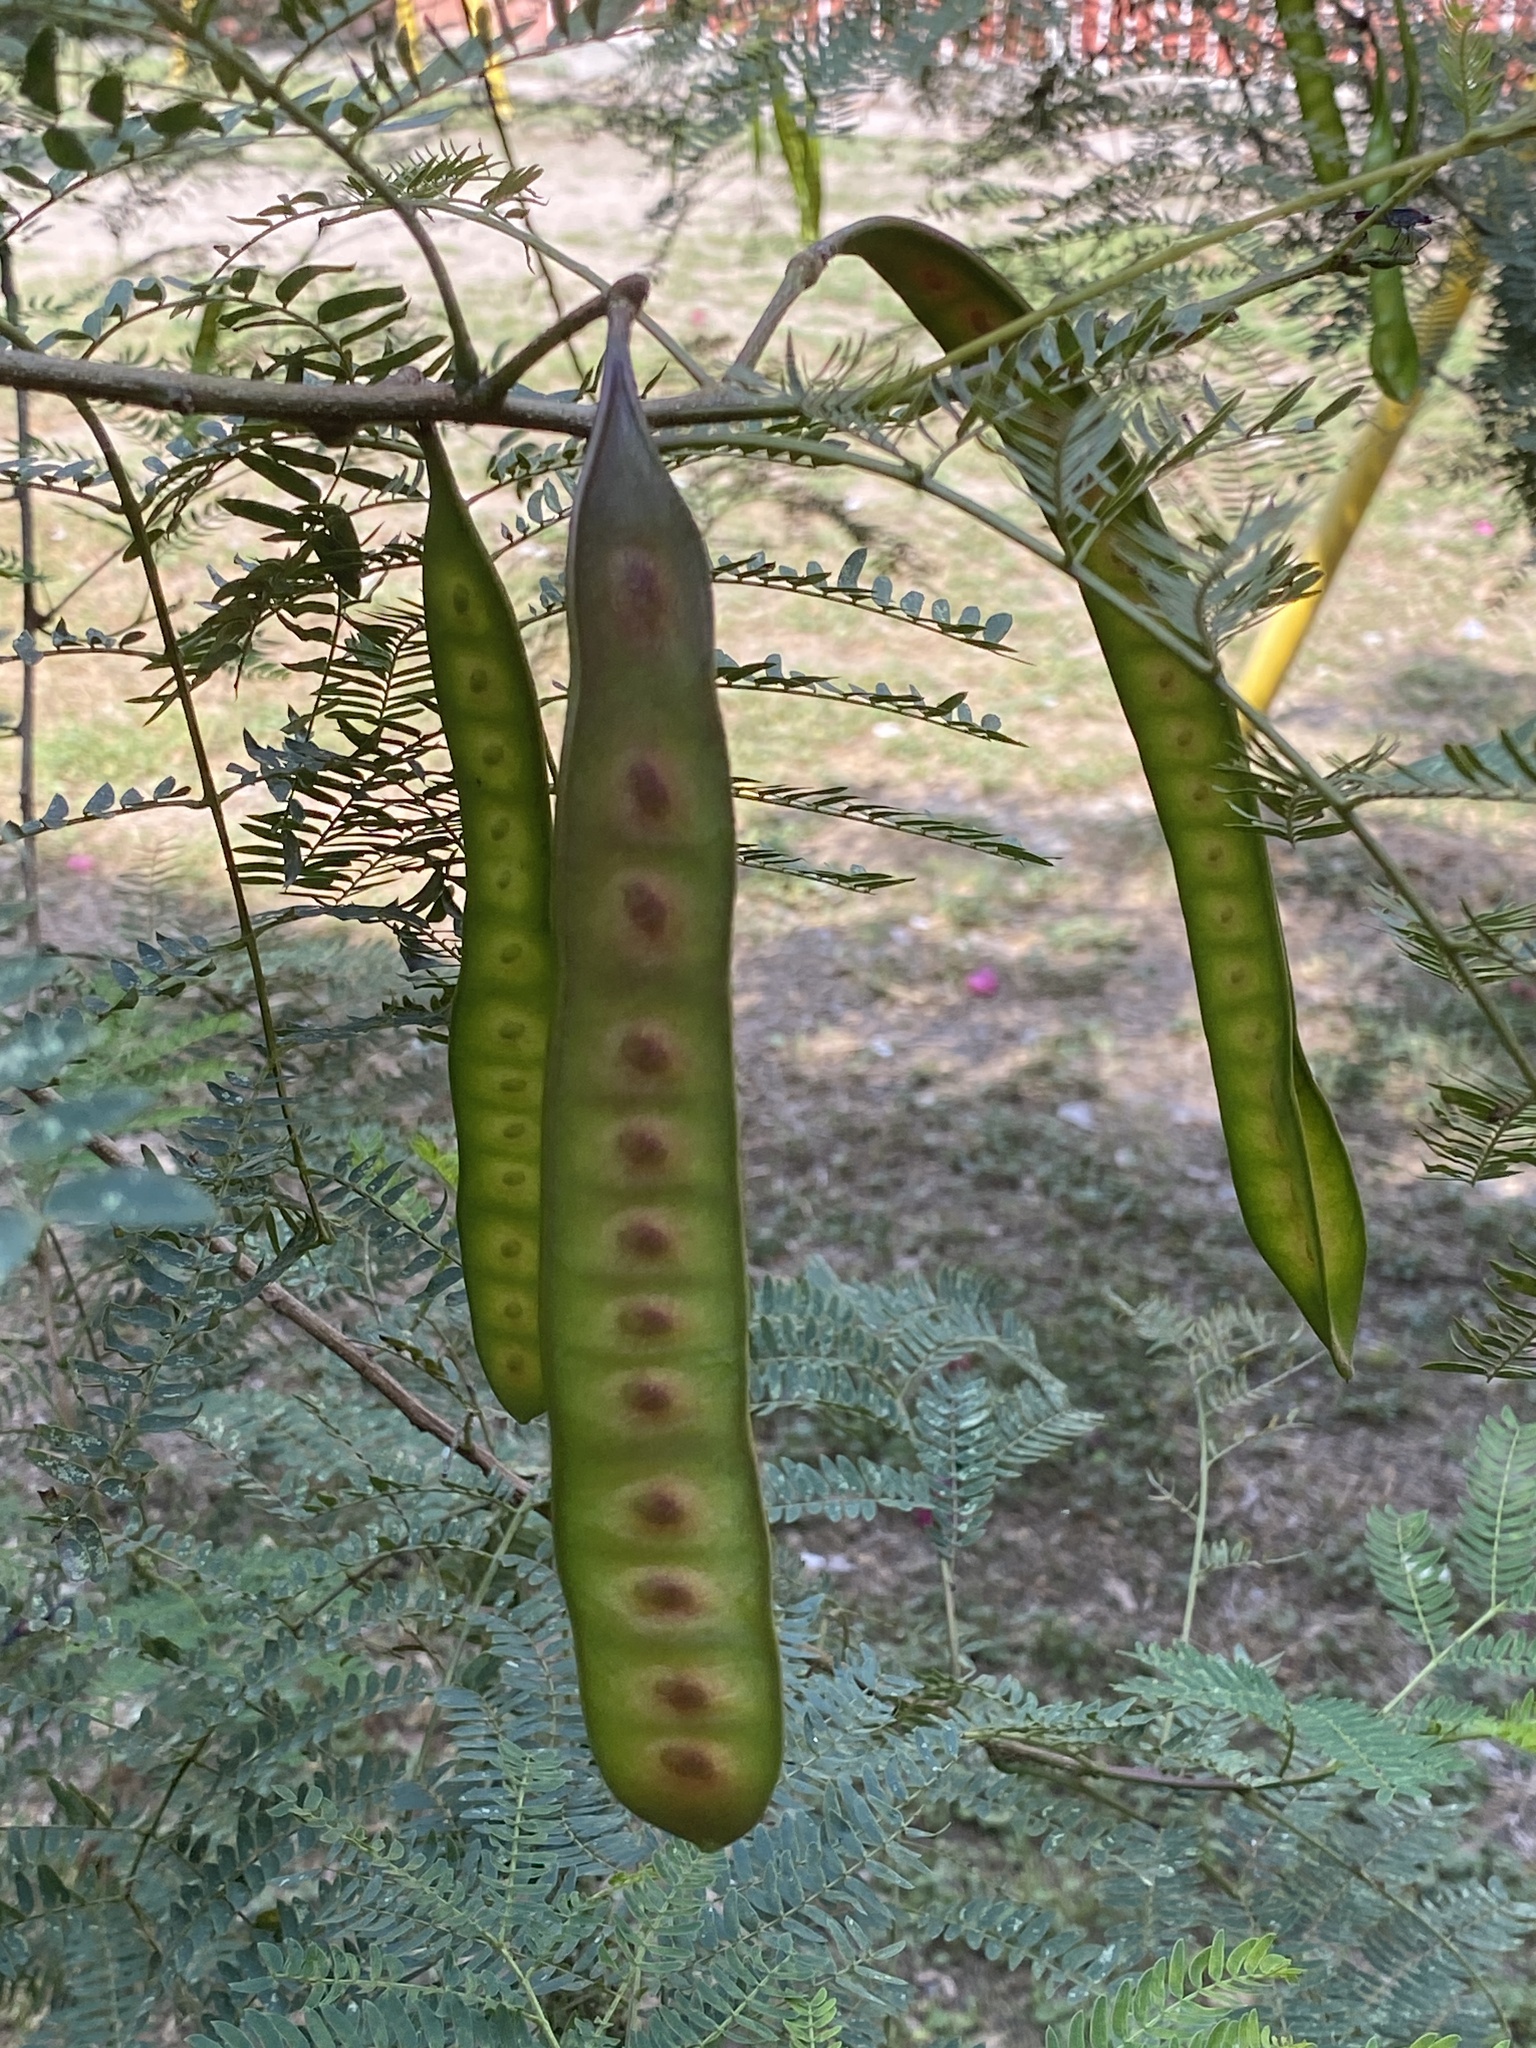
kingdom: Plantae
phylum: Tracheophyta
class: Magnoliopsida
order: Fabales
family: Fabaceae
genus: Leucaena
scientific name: Leucaena leucocephala
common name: White leadtree
